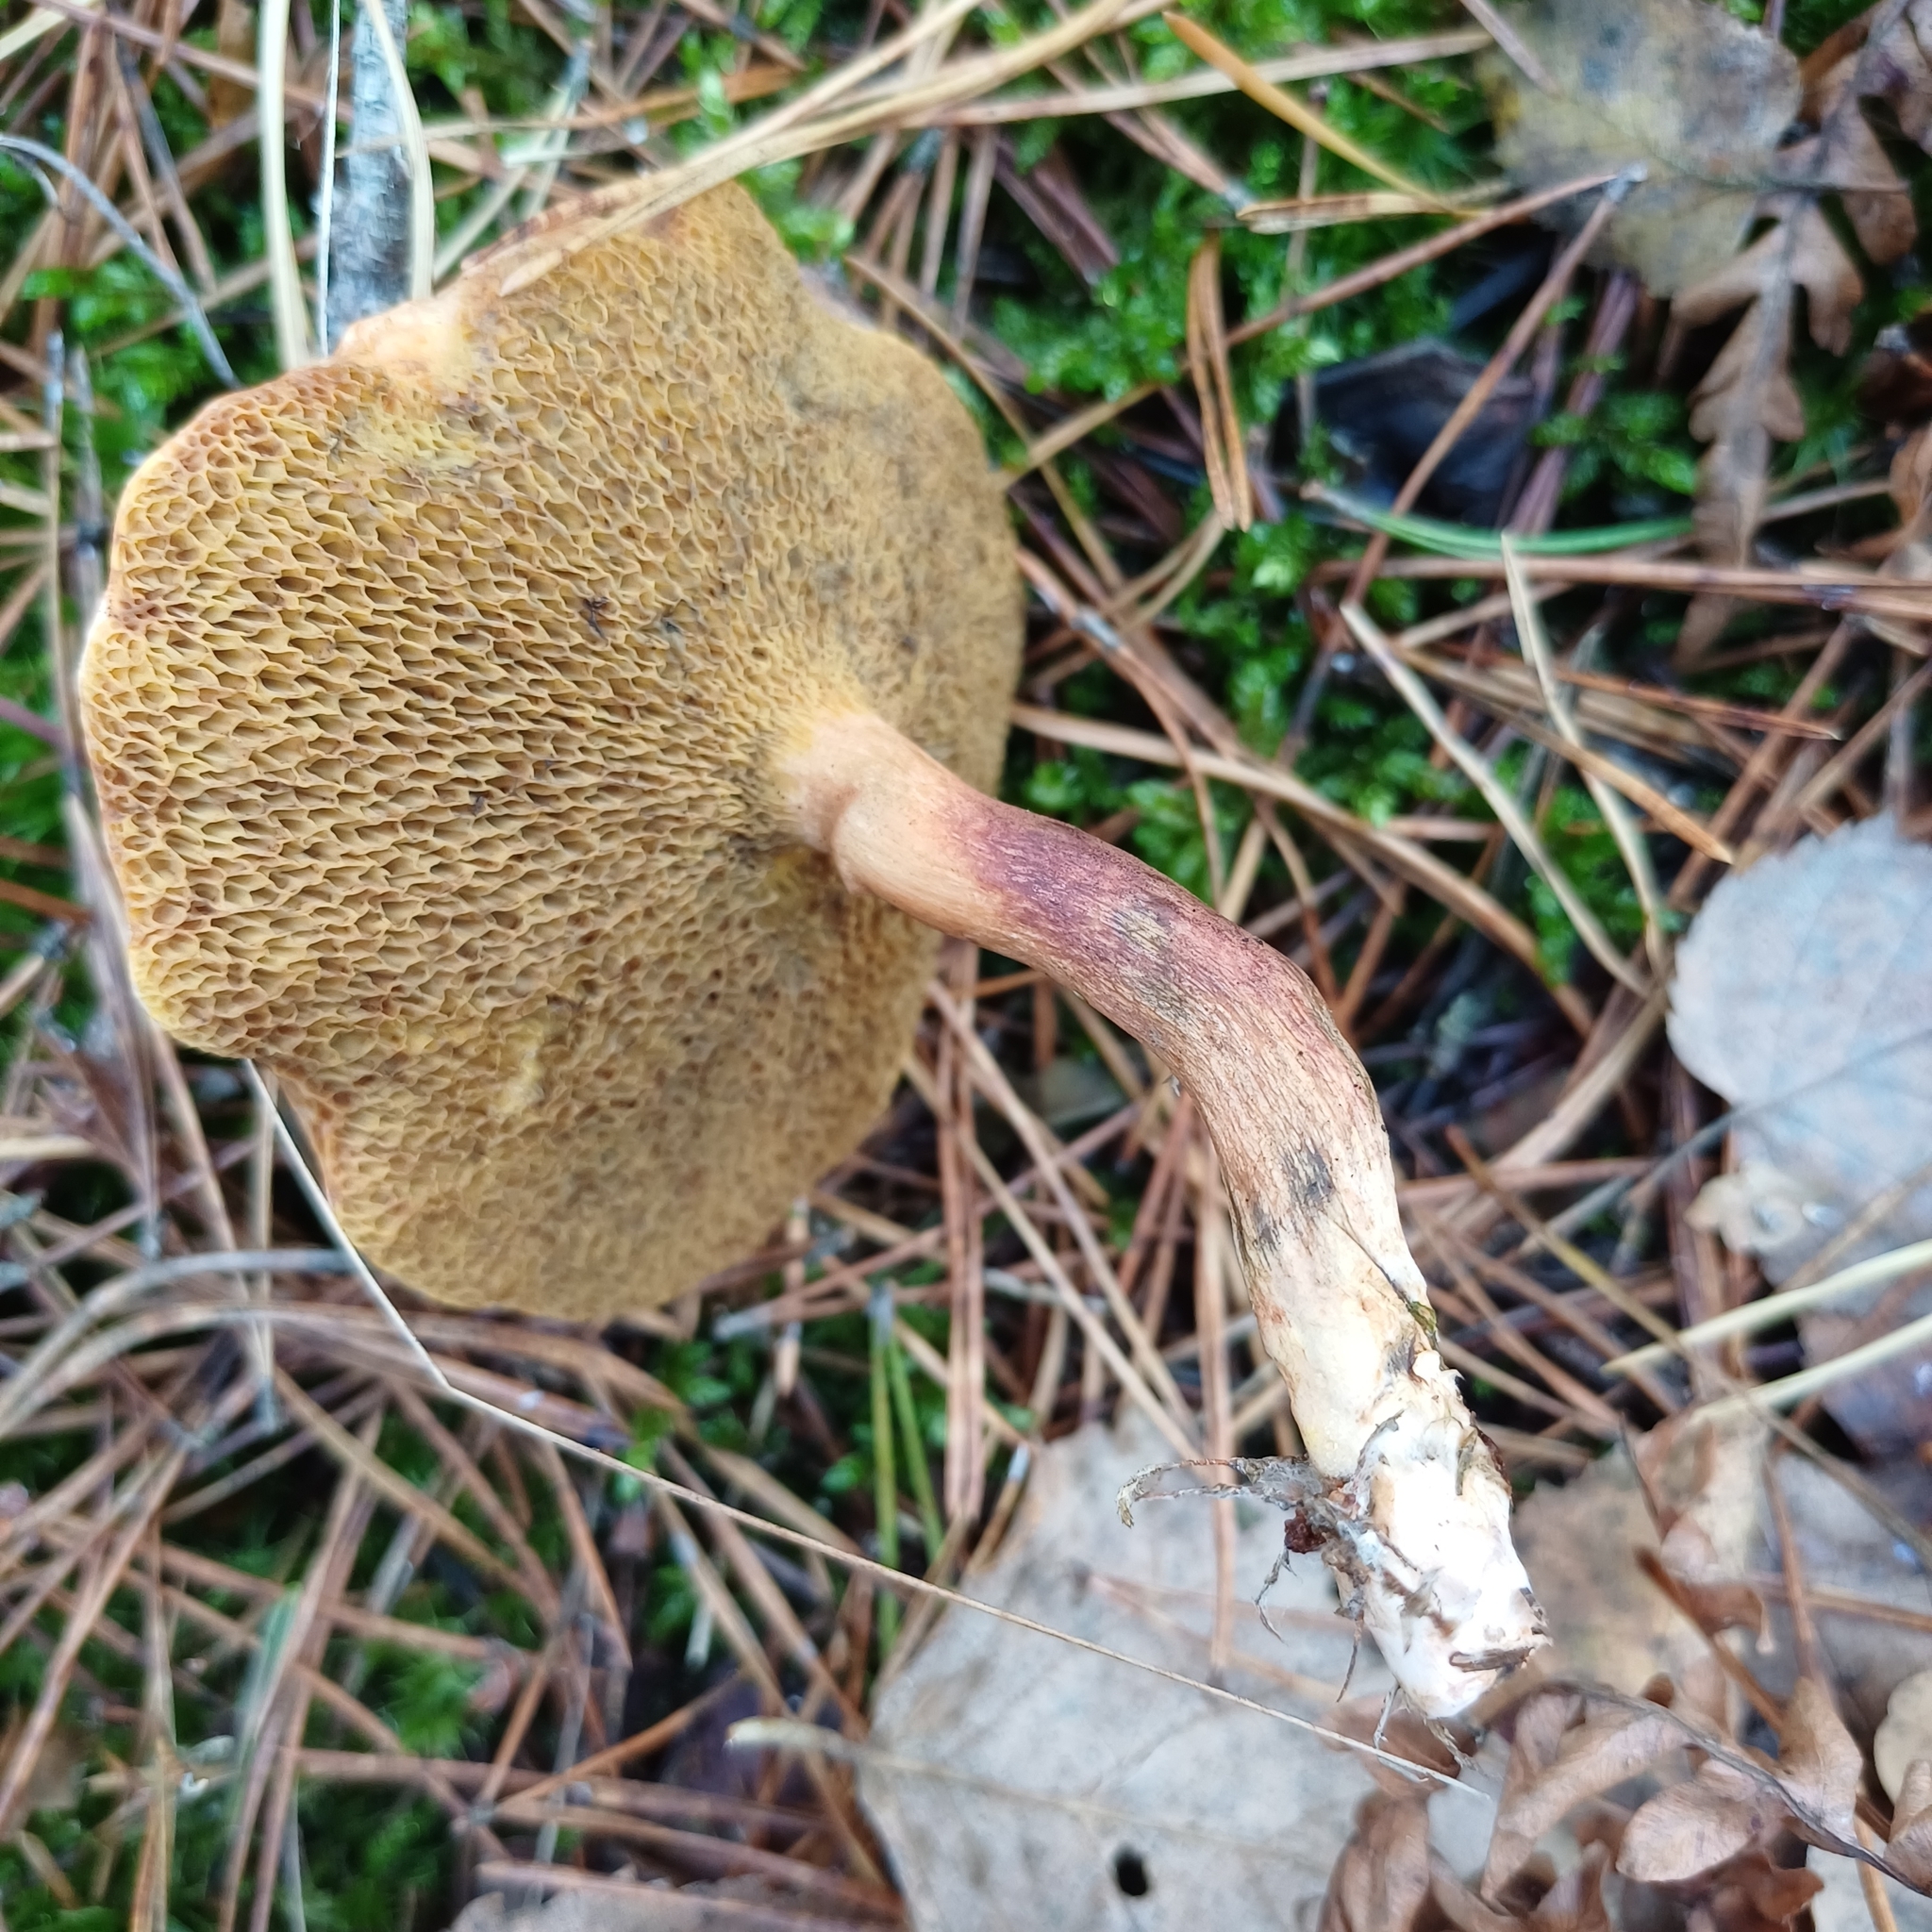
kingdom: Fungi
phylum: Basidiomycota
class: Agaricomycetes
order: Boletales
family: Suillaceae
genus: Suillus
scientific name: Suillus bovinus
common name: Bovine bolete
